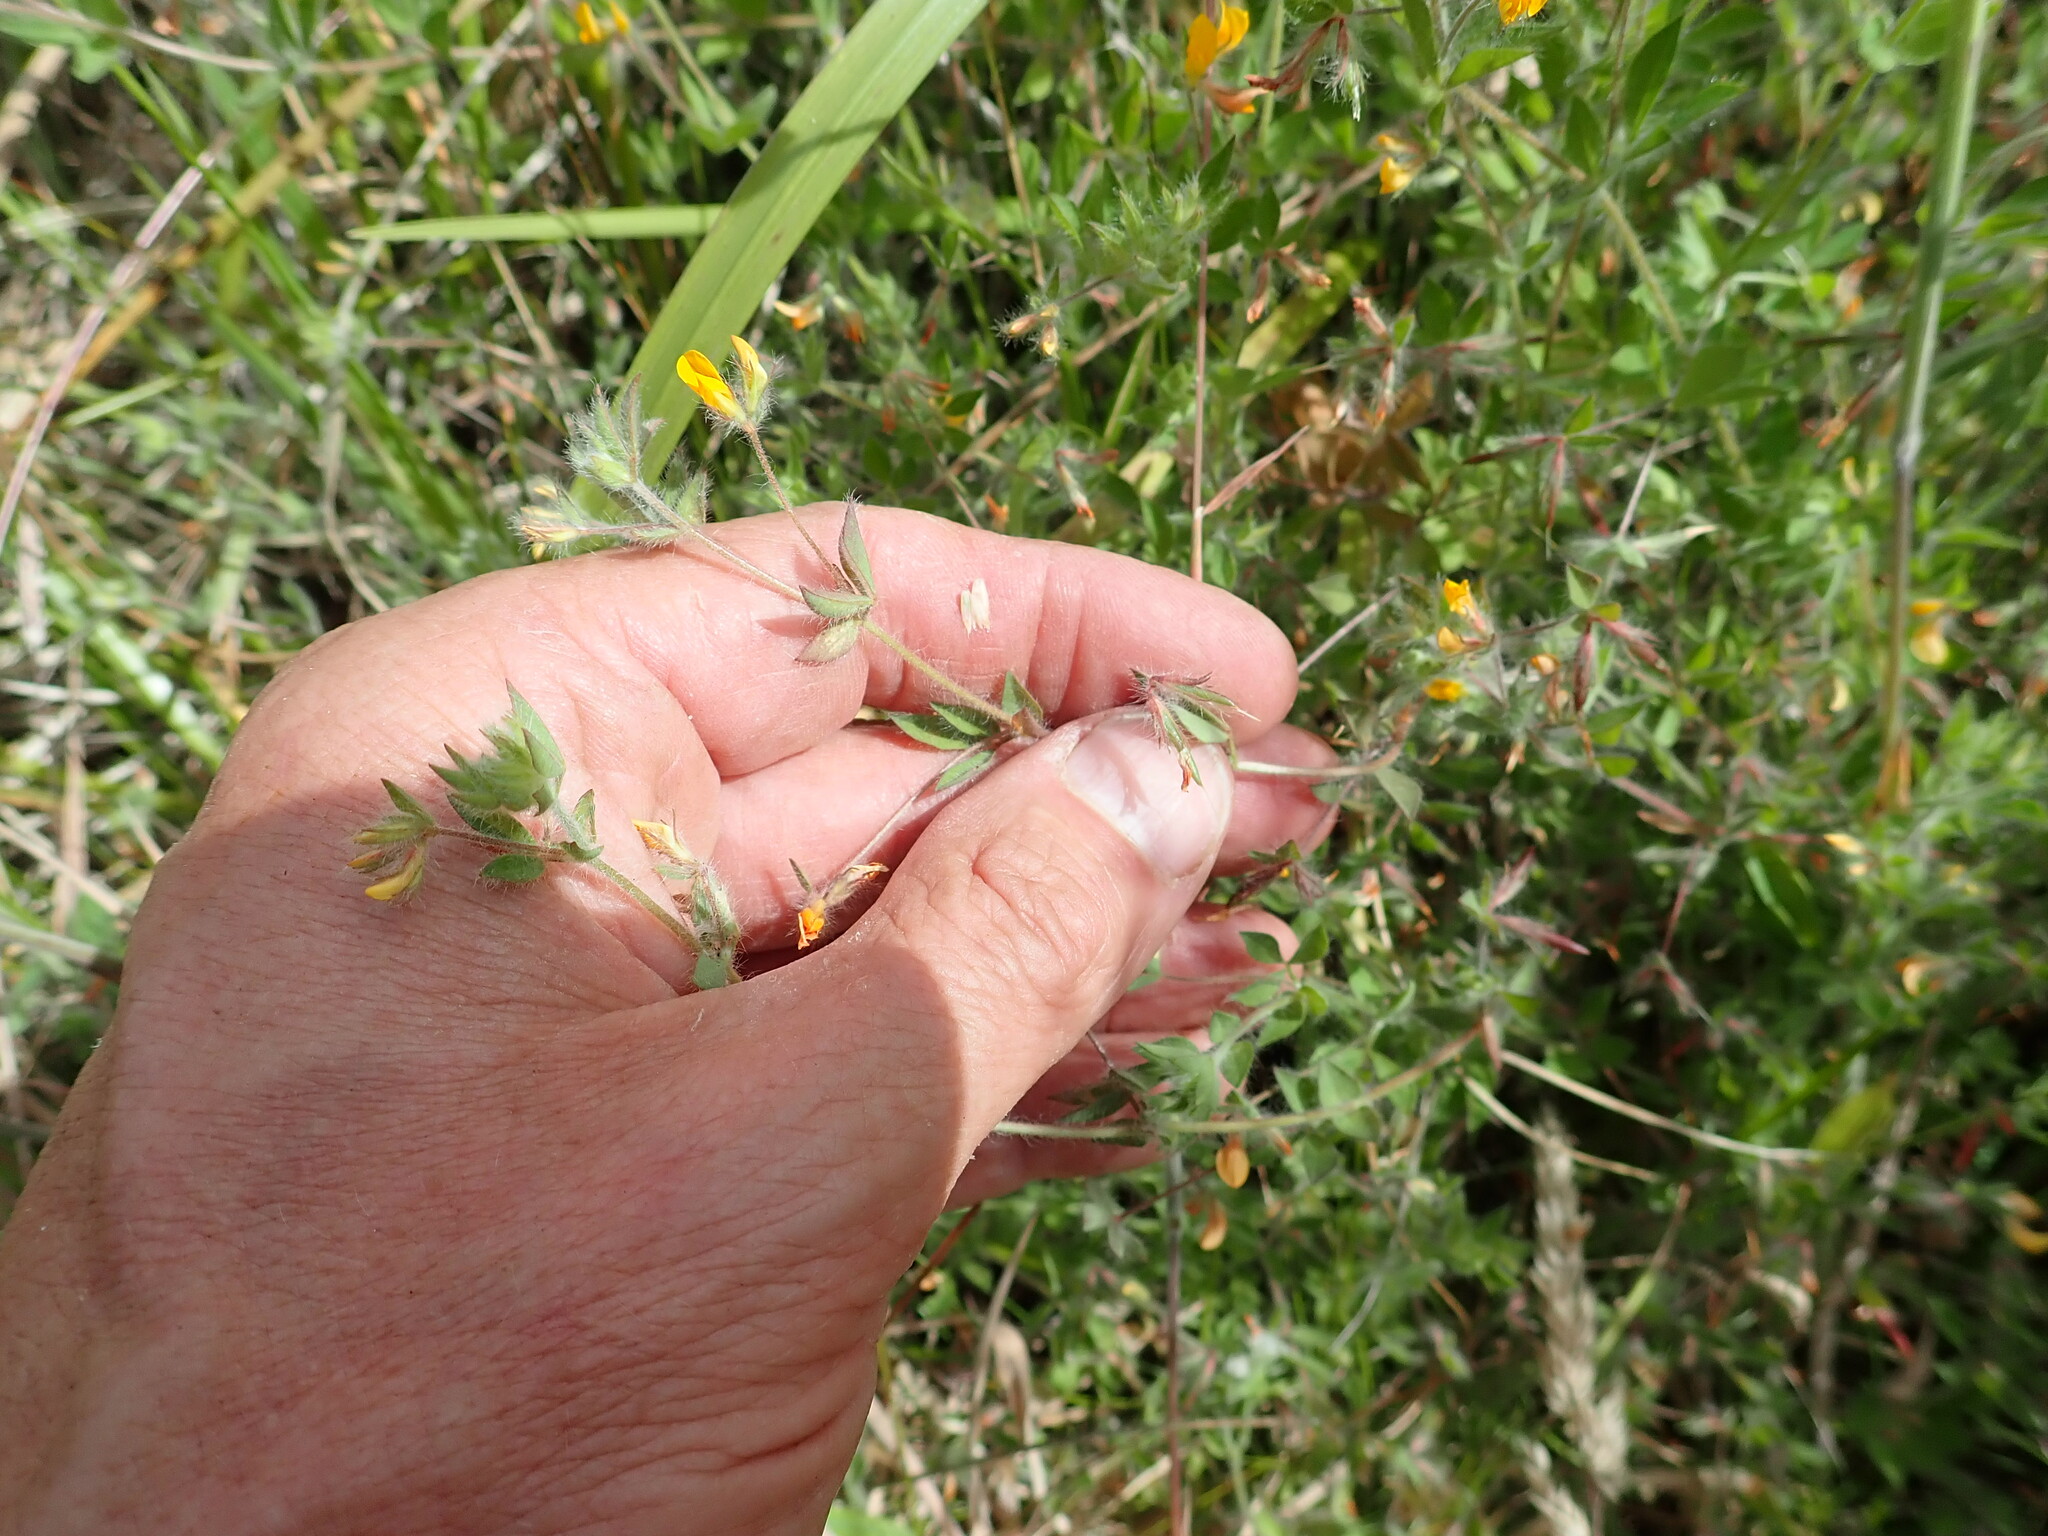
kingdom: Plantae
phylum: Tracheophyta
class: Magnoliopsida
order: Fabales
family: Fabaceae
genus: Lotus
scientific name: Lotus subbiflorus
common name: Hairy bird's-foot trefoil
